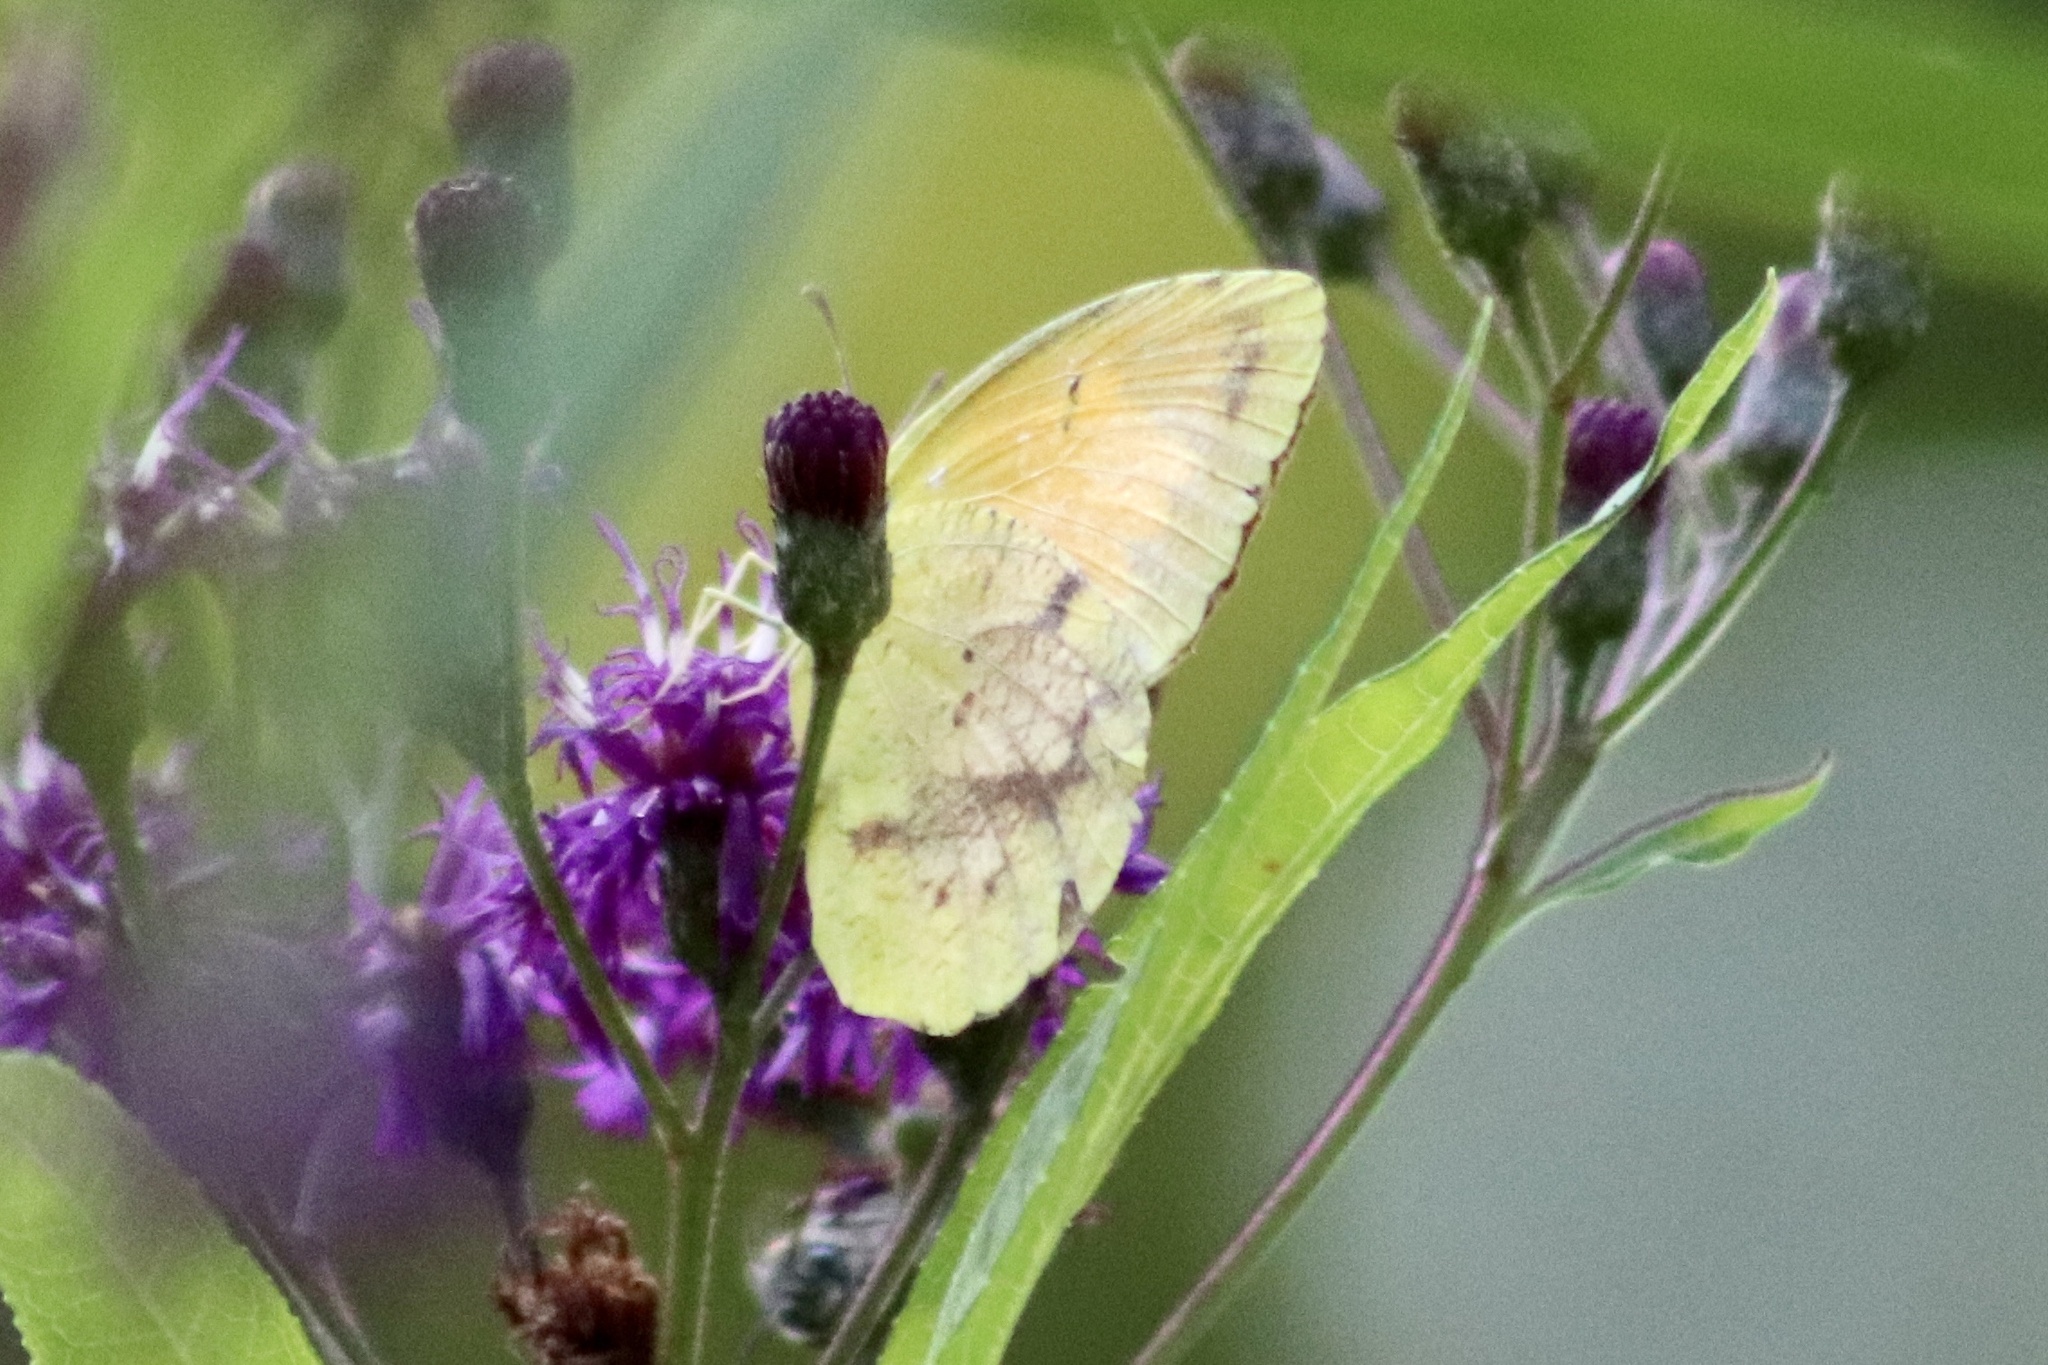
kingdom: Animalia
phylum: Arthropoda
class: Insecta
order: Lepidoptera
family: Pieridae
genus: Abaeis
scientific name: Abaeis nicippe
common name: Sleepy orange
